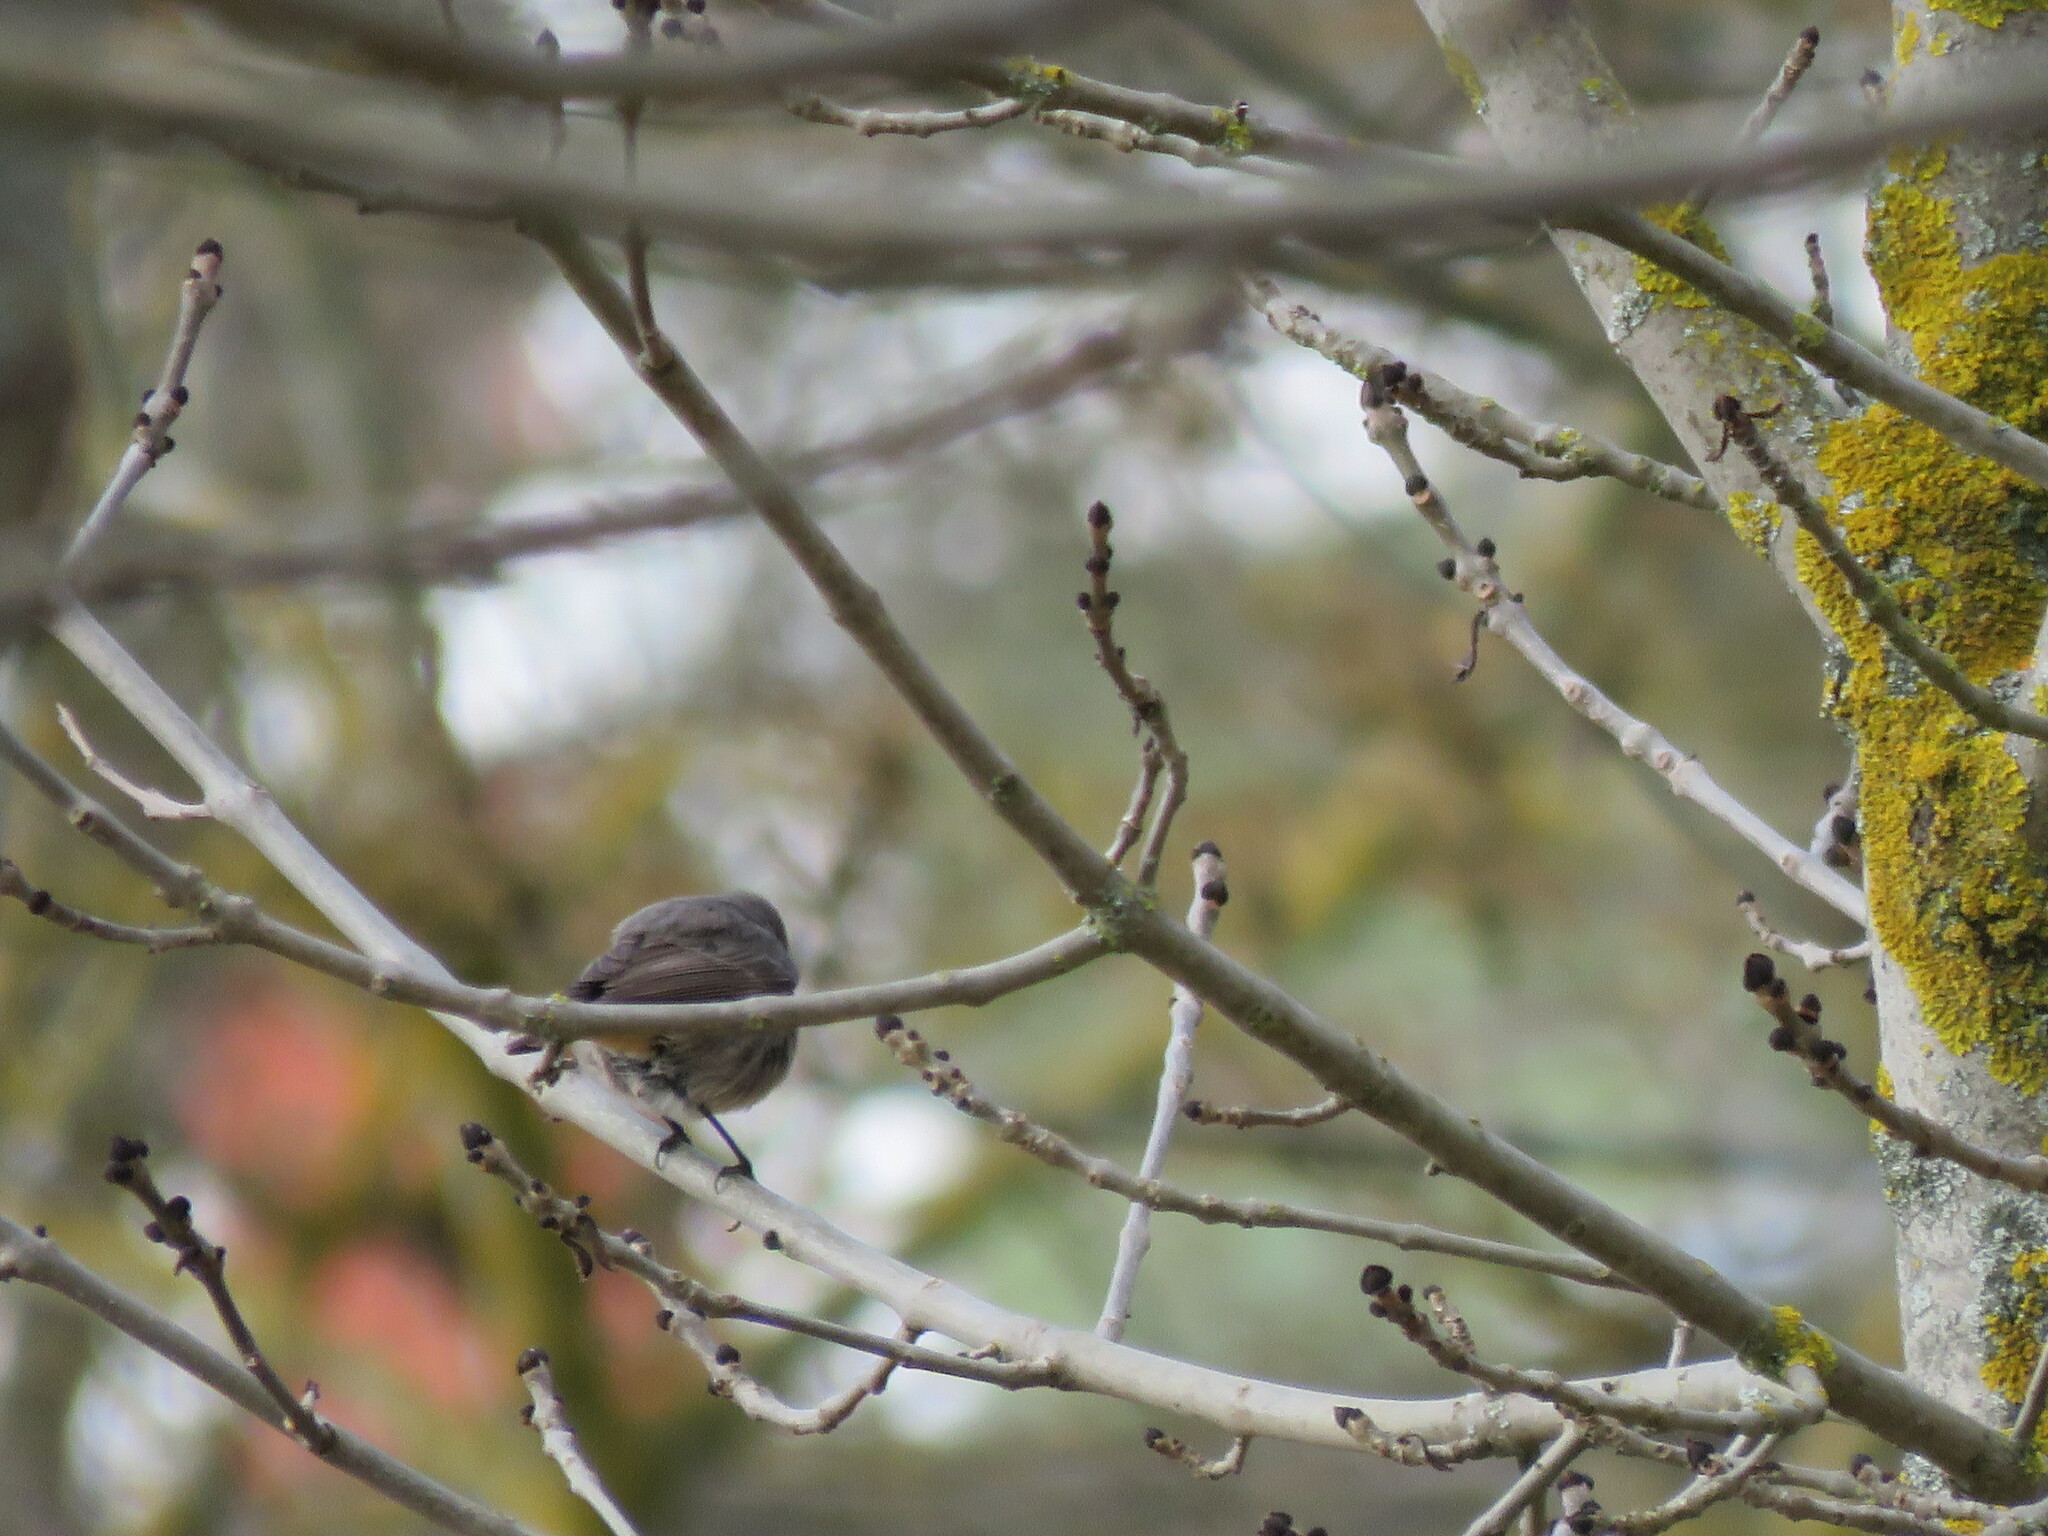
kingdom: Animalia
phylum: Chordata
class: Aves
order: Passeriformes
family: Muscicapidae
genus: Phoenicurus
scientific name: Phoenicurus ochruros
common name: Black redstart
